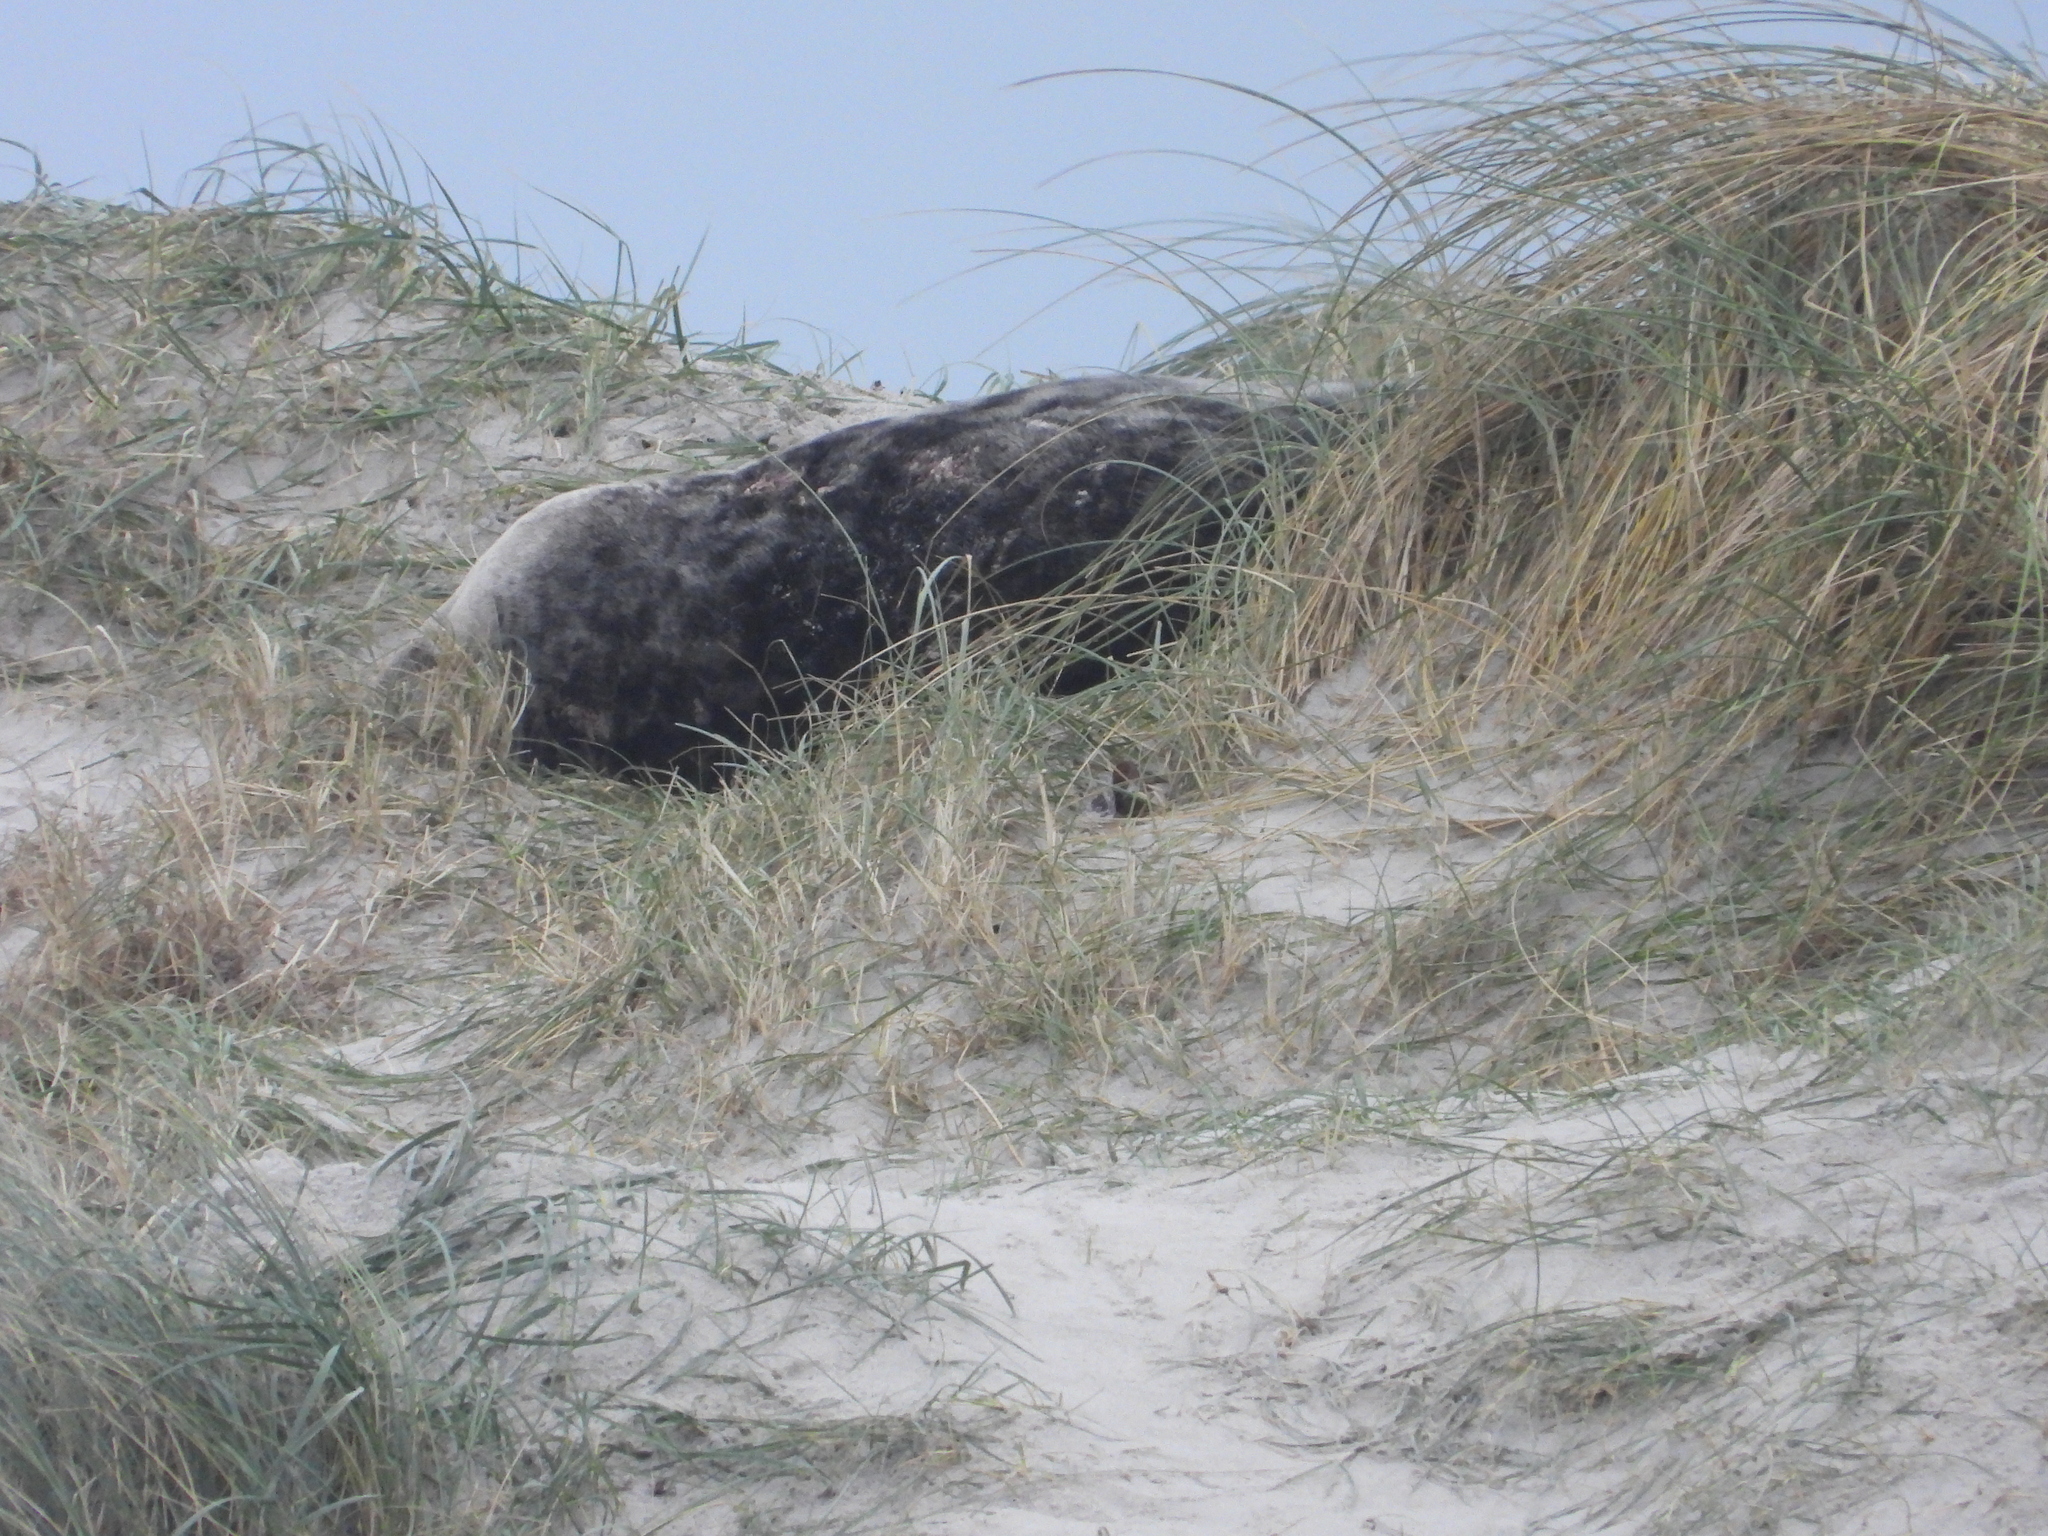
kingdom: Animalia
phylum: Chordata
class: Mammalia
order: Carnivora
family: Phocidae
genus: Halichoerus
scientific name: Halichoerus grypus
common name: Grey seal
